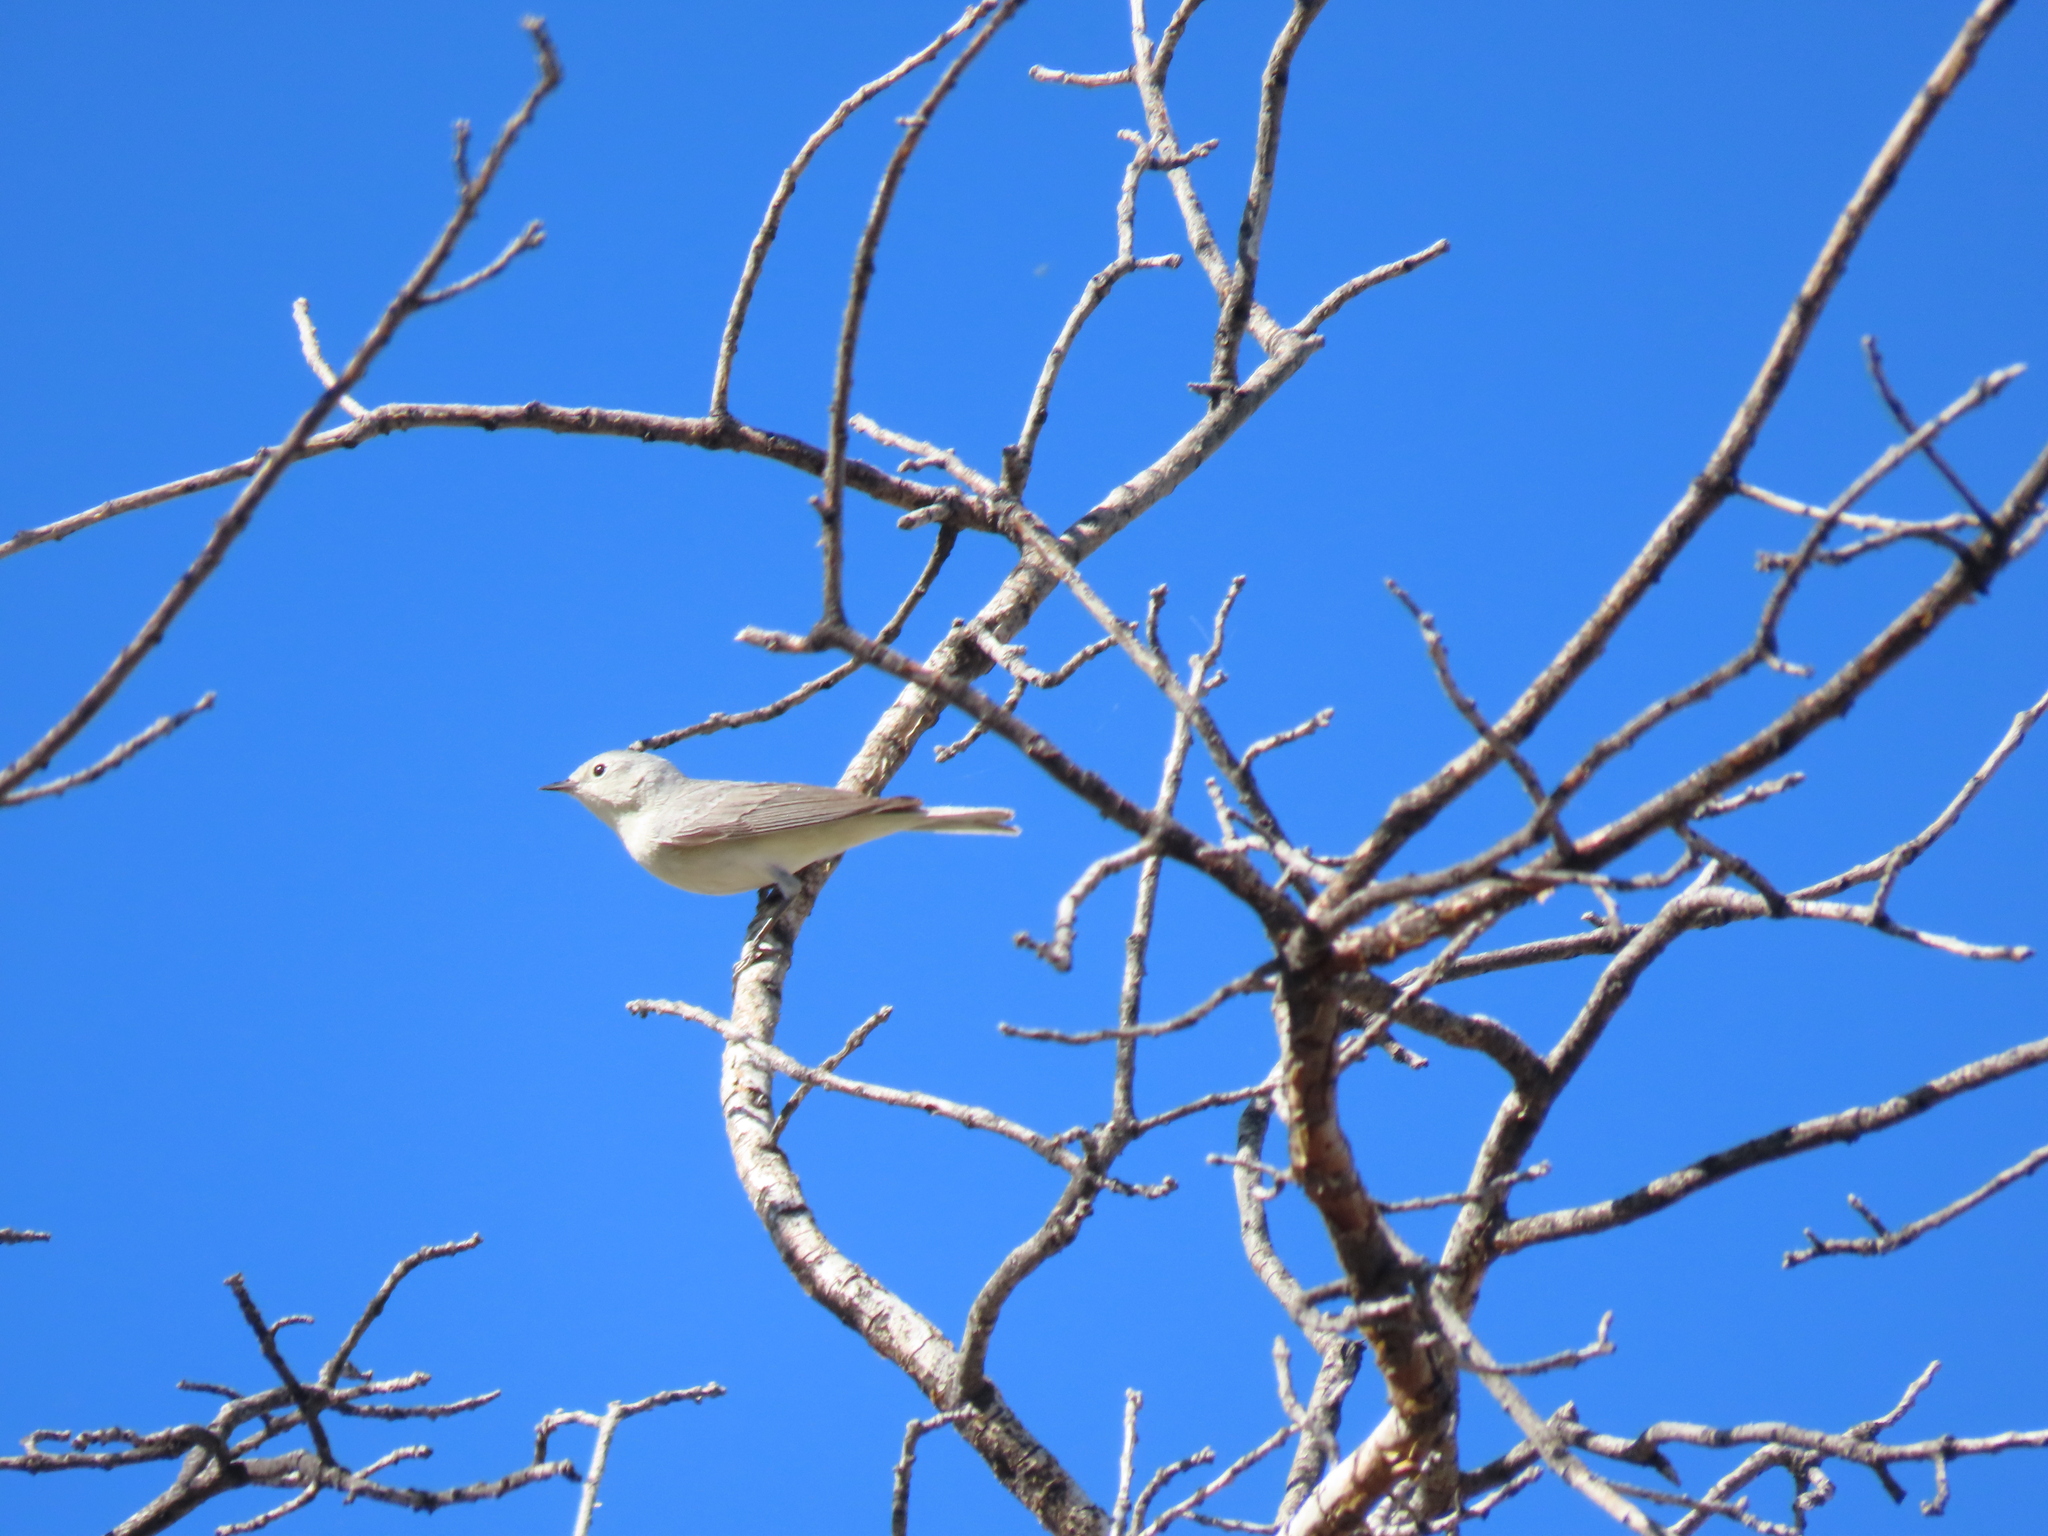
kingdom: Animalia
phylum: Chordata
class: Aves
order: Passeriformes
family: Parulidae
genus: Leiothlypis
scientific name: Leiothlypis luciae
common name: Lucy's warbler
